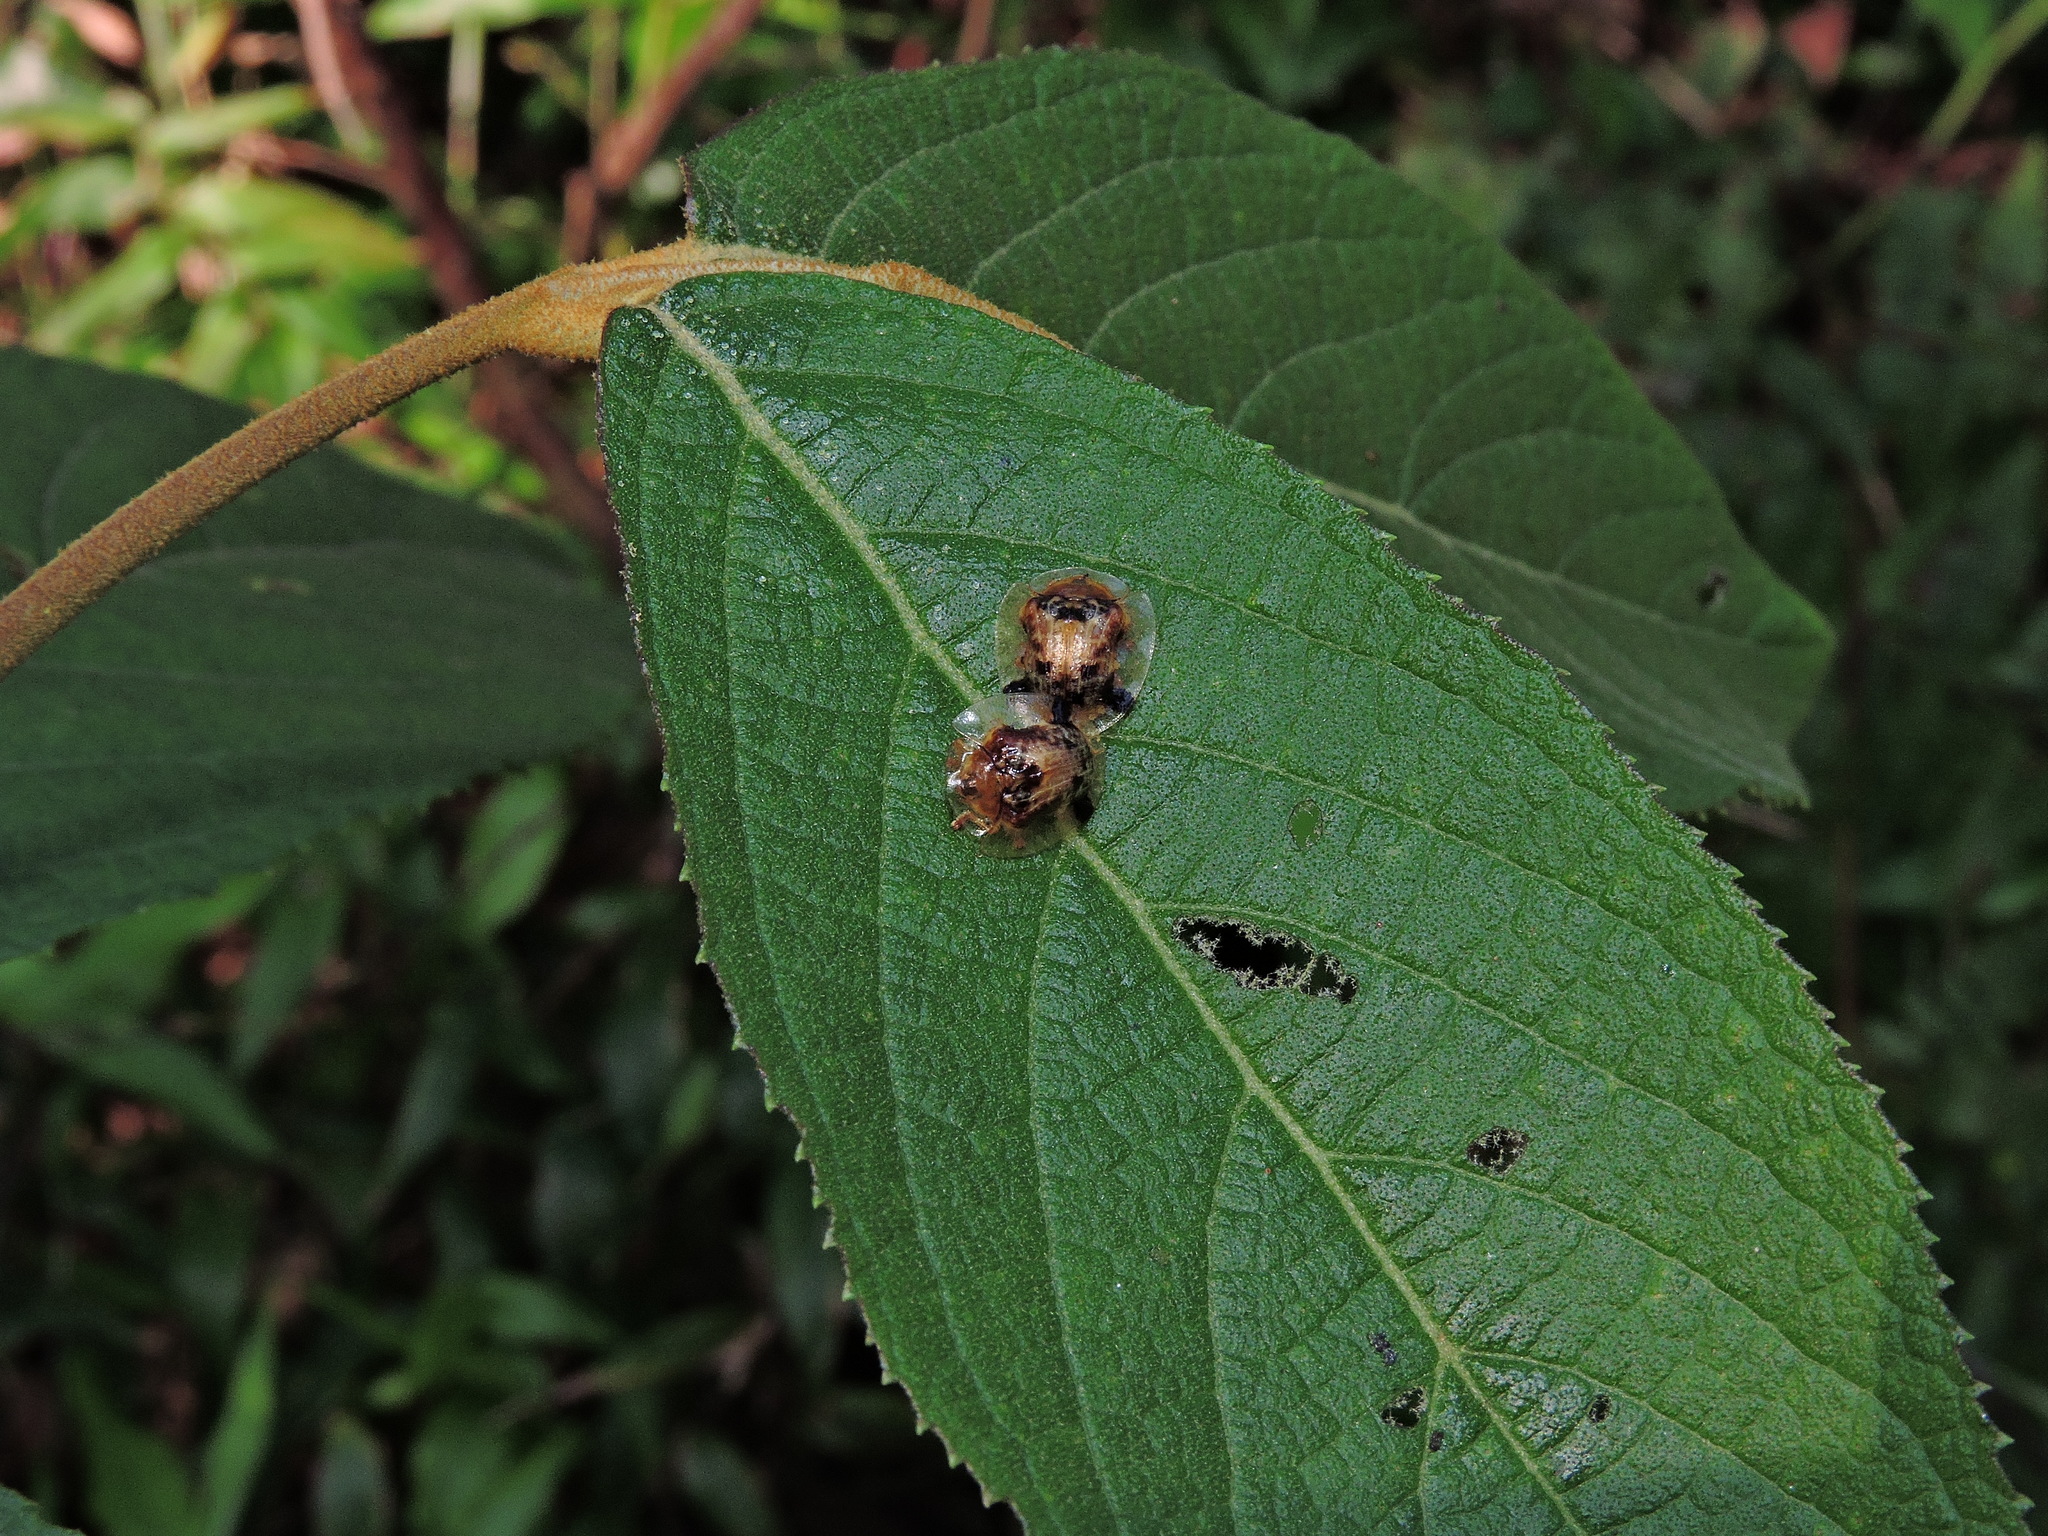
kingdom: Animalia
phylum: Arthropoda
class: Insecta
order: Coleoptera
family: Chrysomelidae
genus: Thlaspida
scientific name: Thlaspida biramosa
